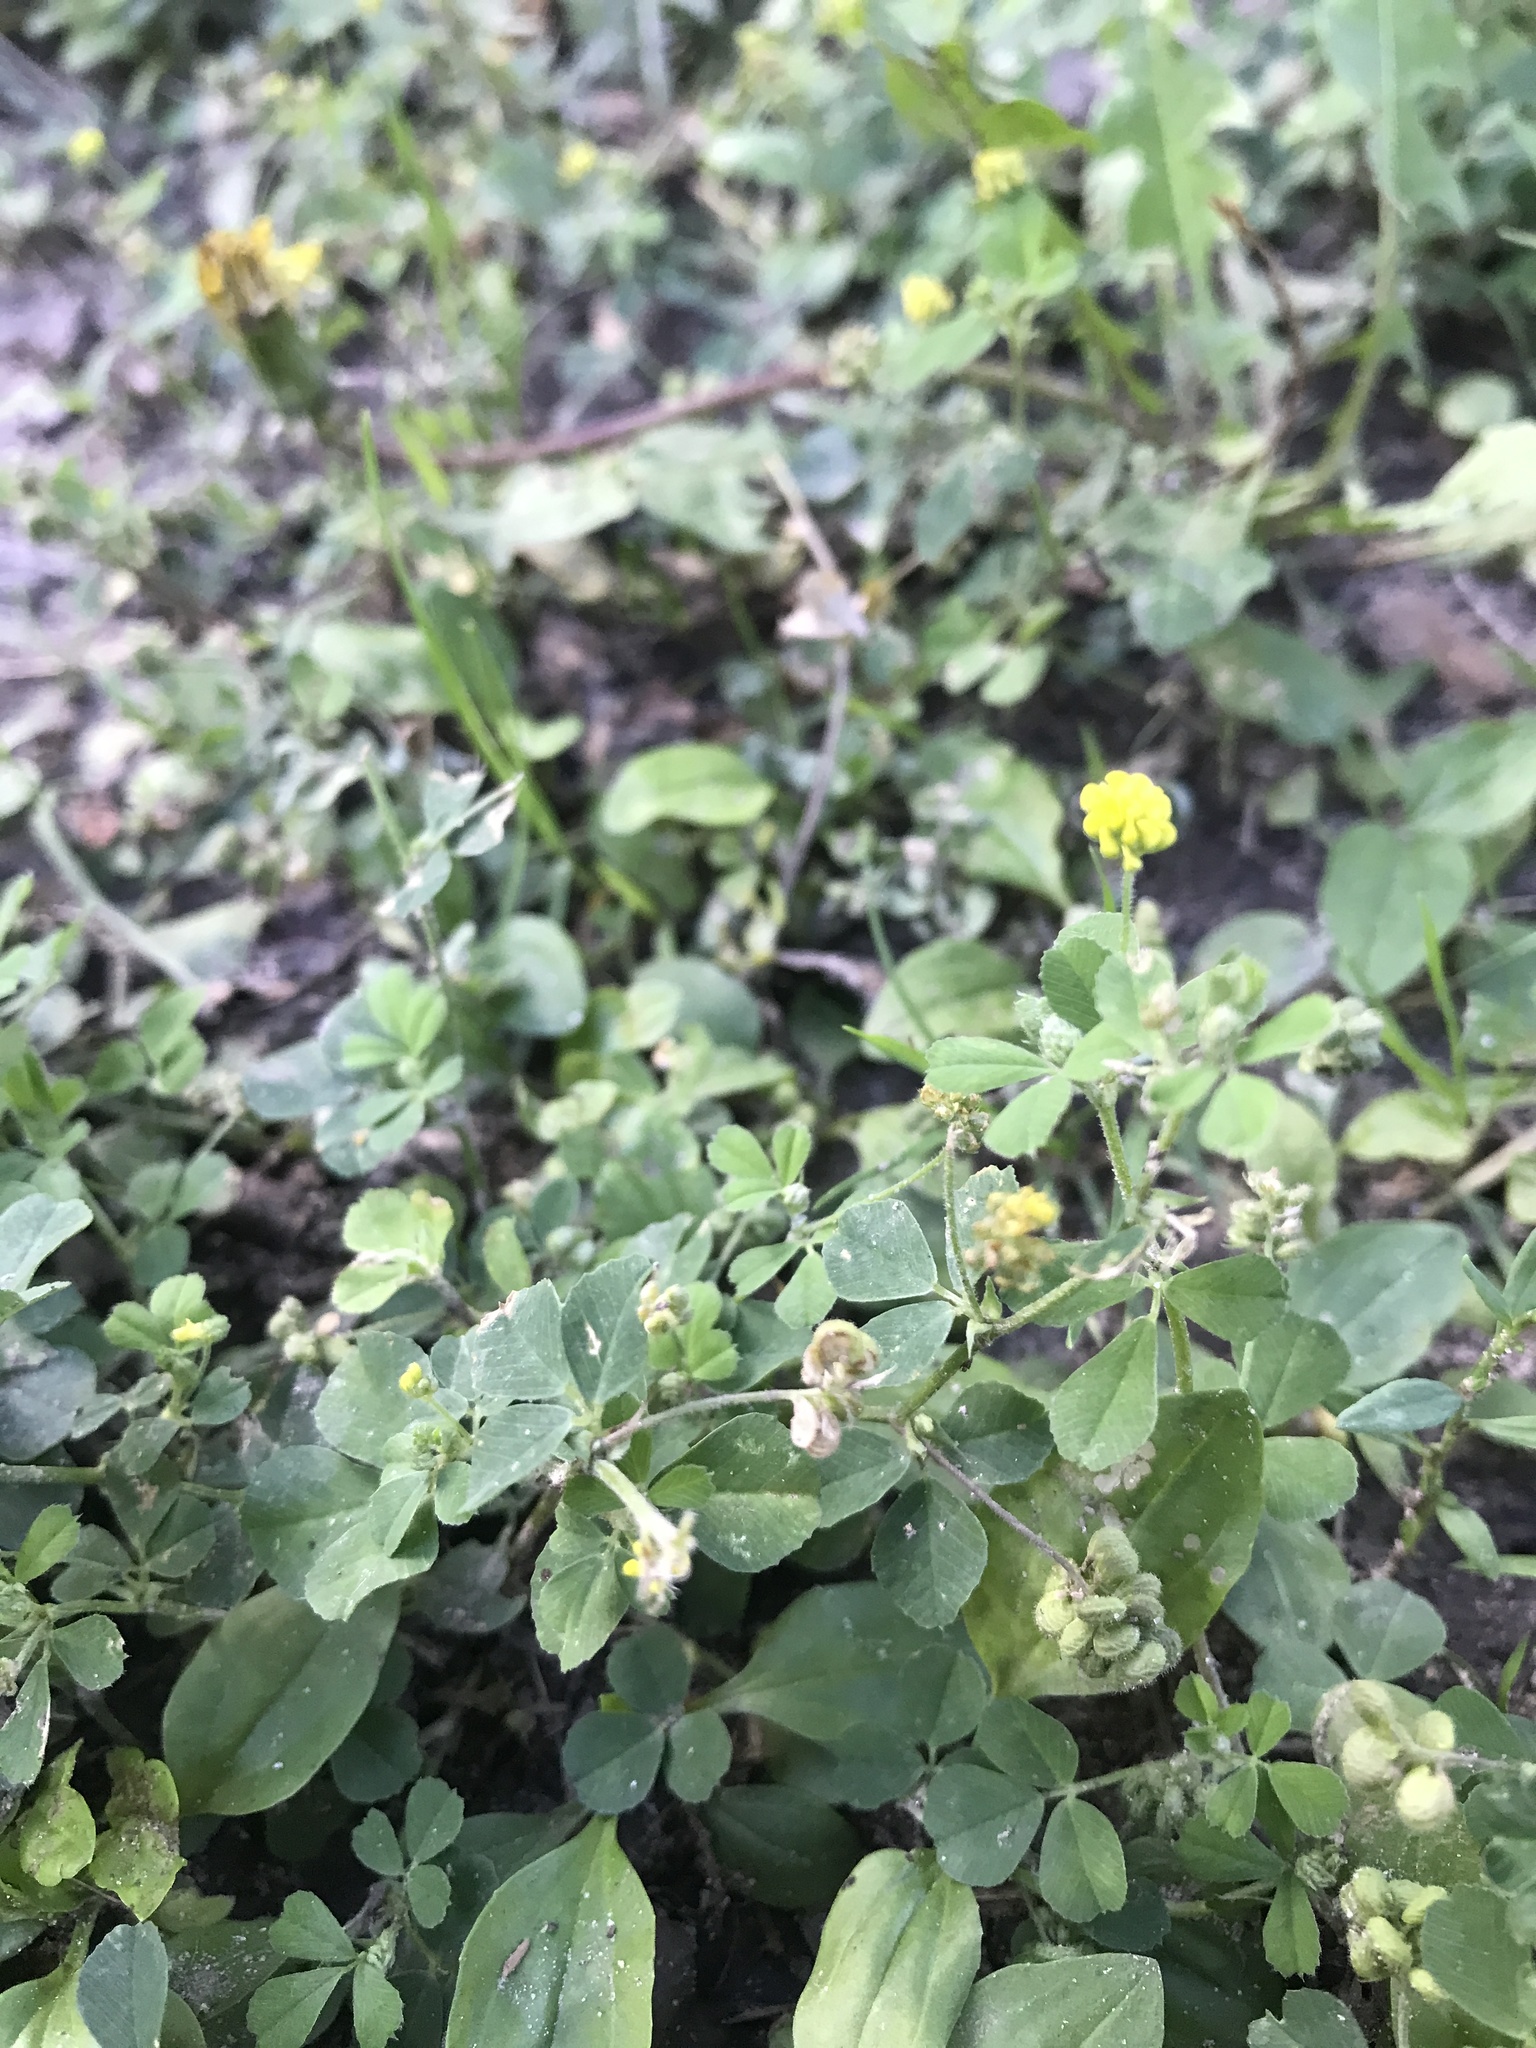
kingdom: Plantae
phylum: Tracheophyta
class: Magnoliopsida
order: Fabales
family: Fabaceae
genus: Medicago
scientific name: Medicago lupulina
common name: Black medick
